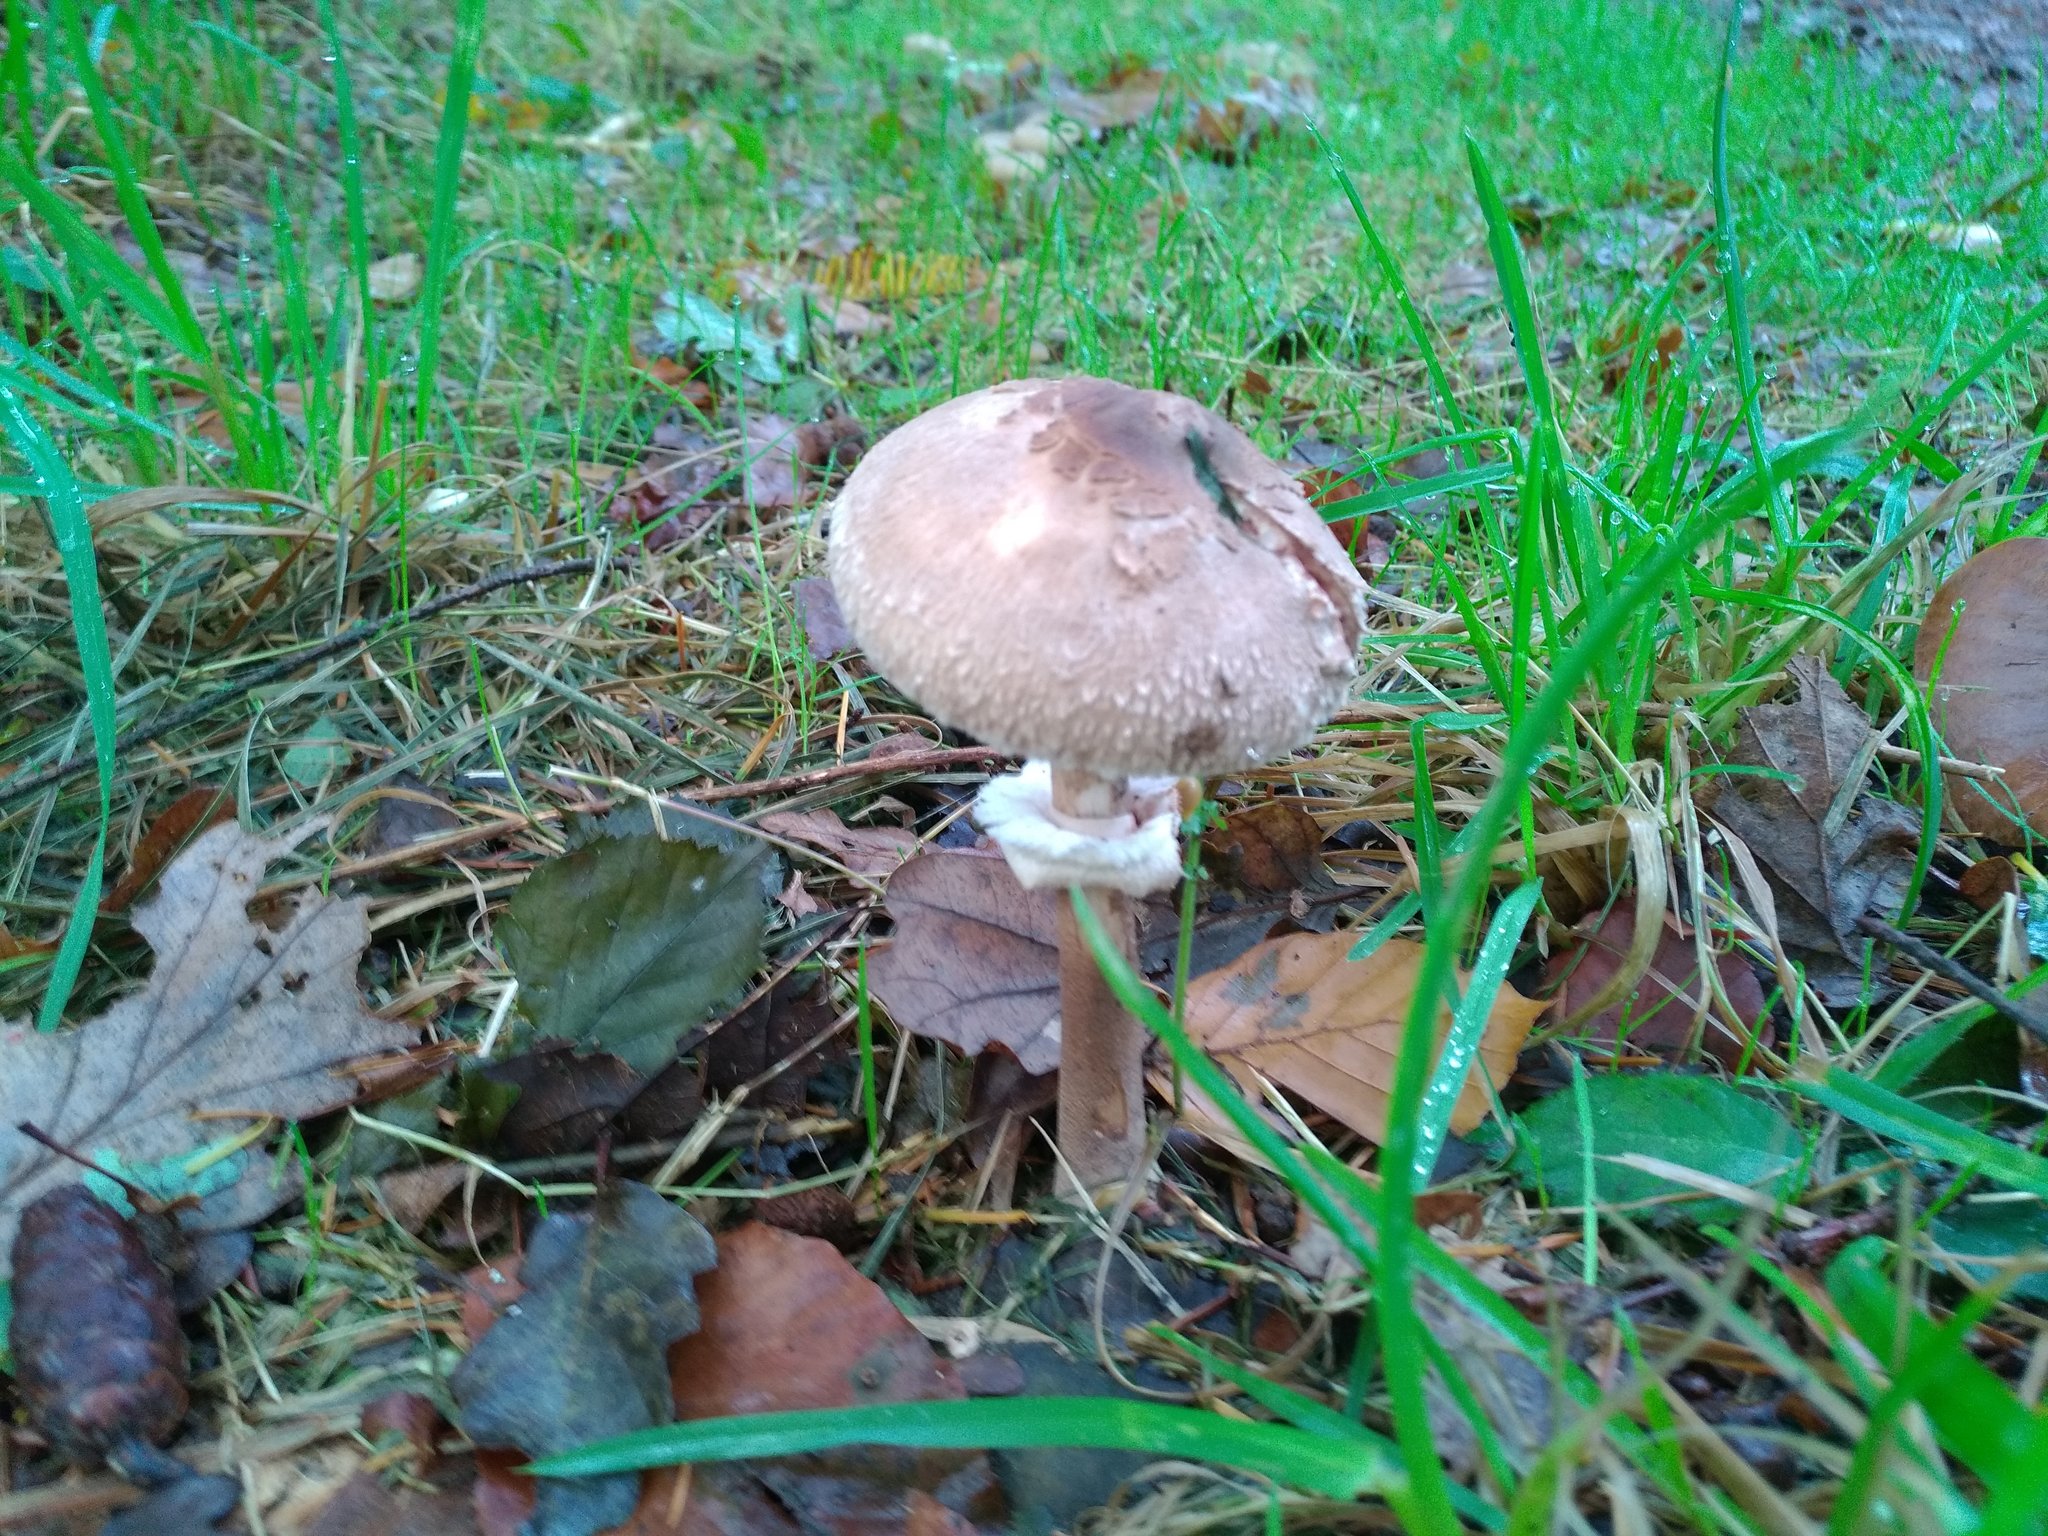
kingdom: Fungi
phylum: Basidiomycota
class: Agaricomycetes
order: Agaricales
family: Agaricaceae
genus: Macrolepiota
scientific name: Macrolepiota procera
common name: Parasol
